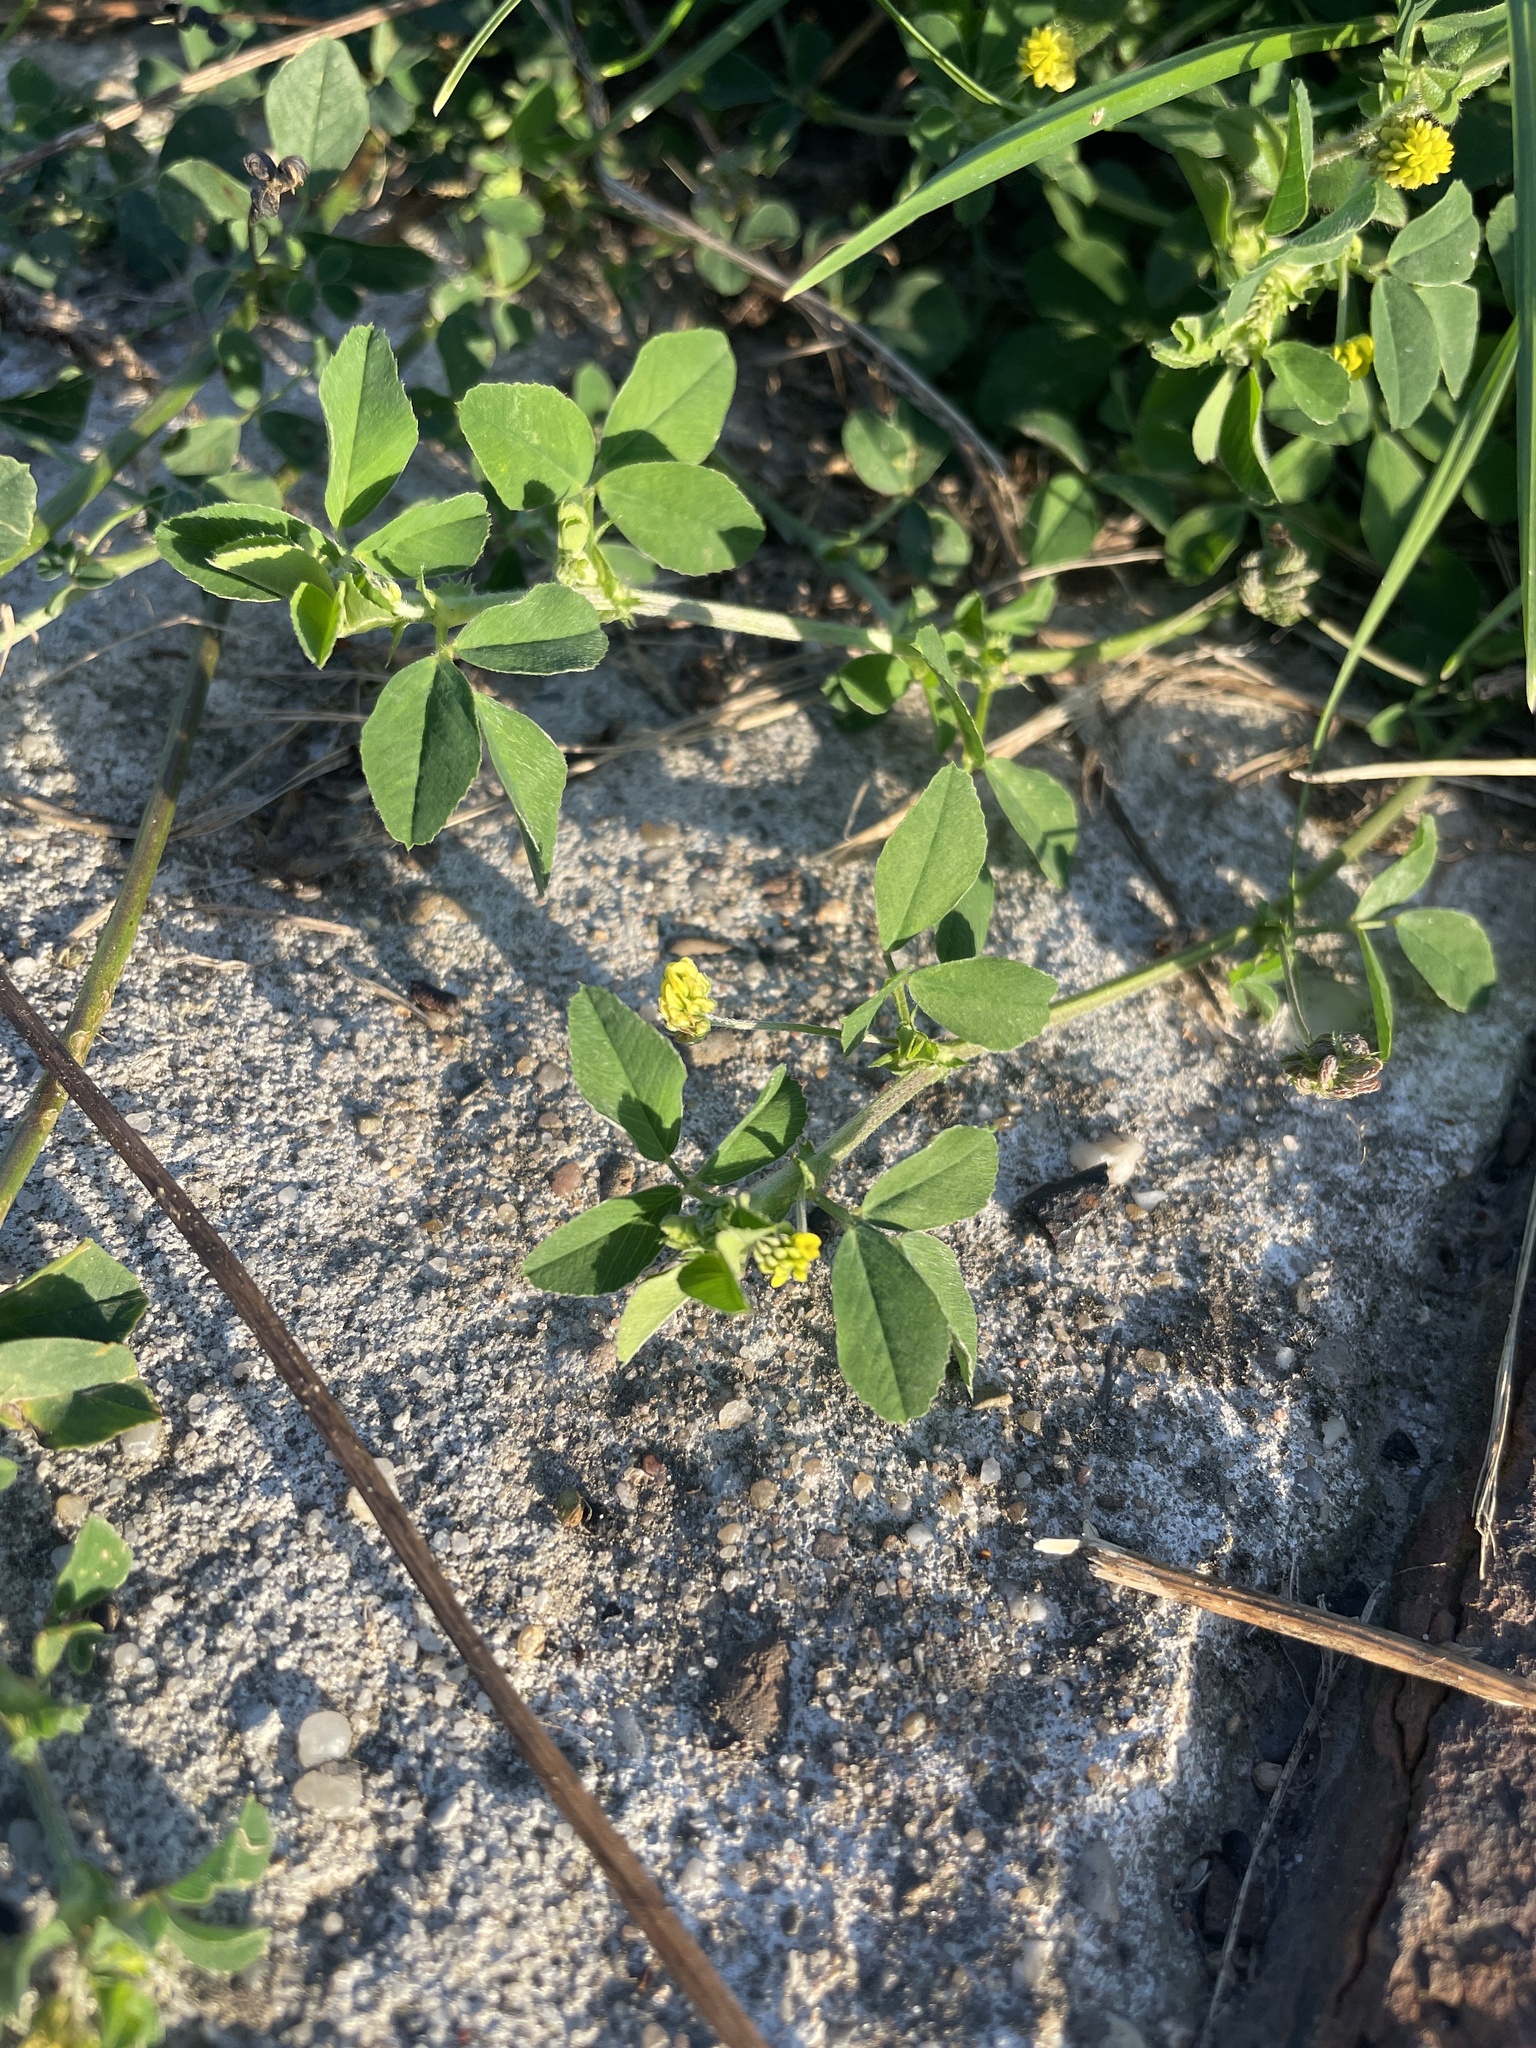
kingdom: Plantae
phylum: Tracheophyta
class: Magnoliopsida
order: Fabales
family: Fabaceae
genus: Medicago
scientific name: Medicago lupulina
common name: Black medick
